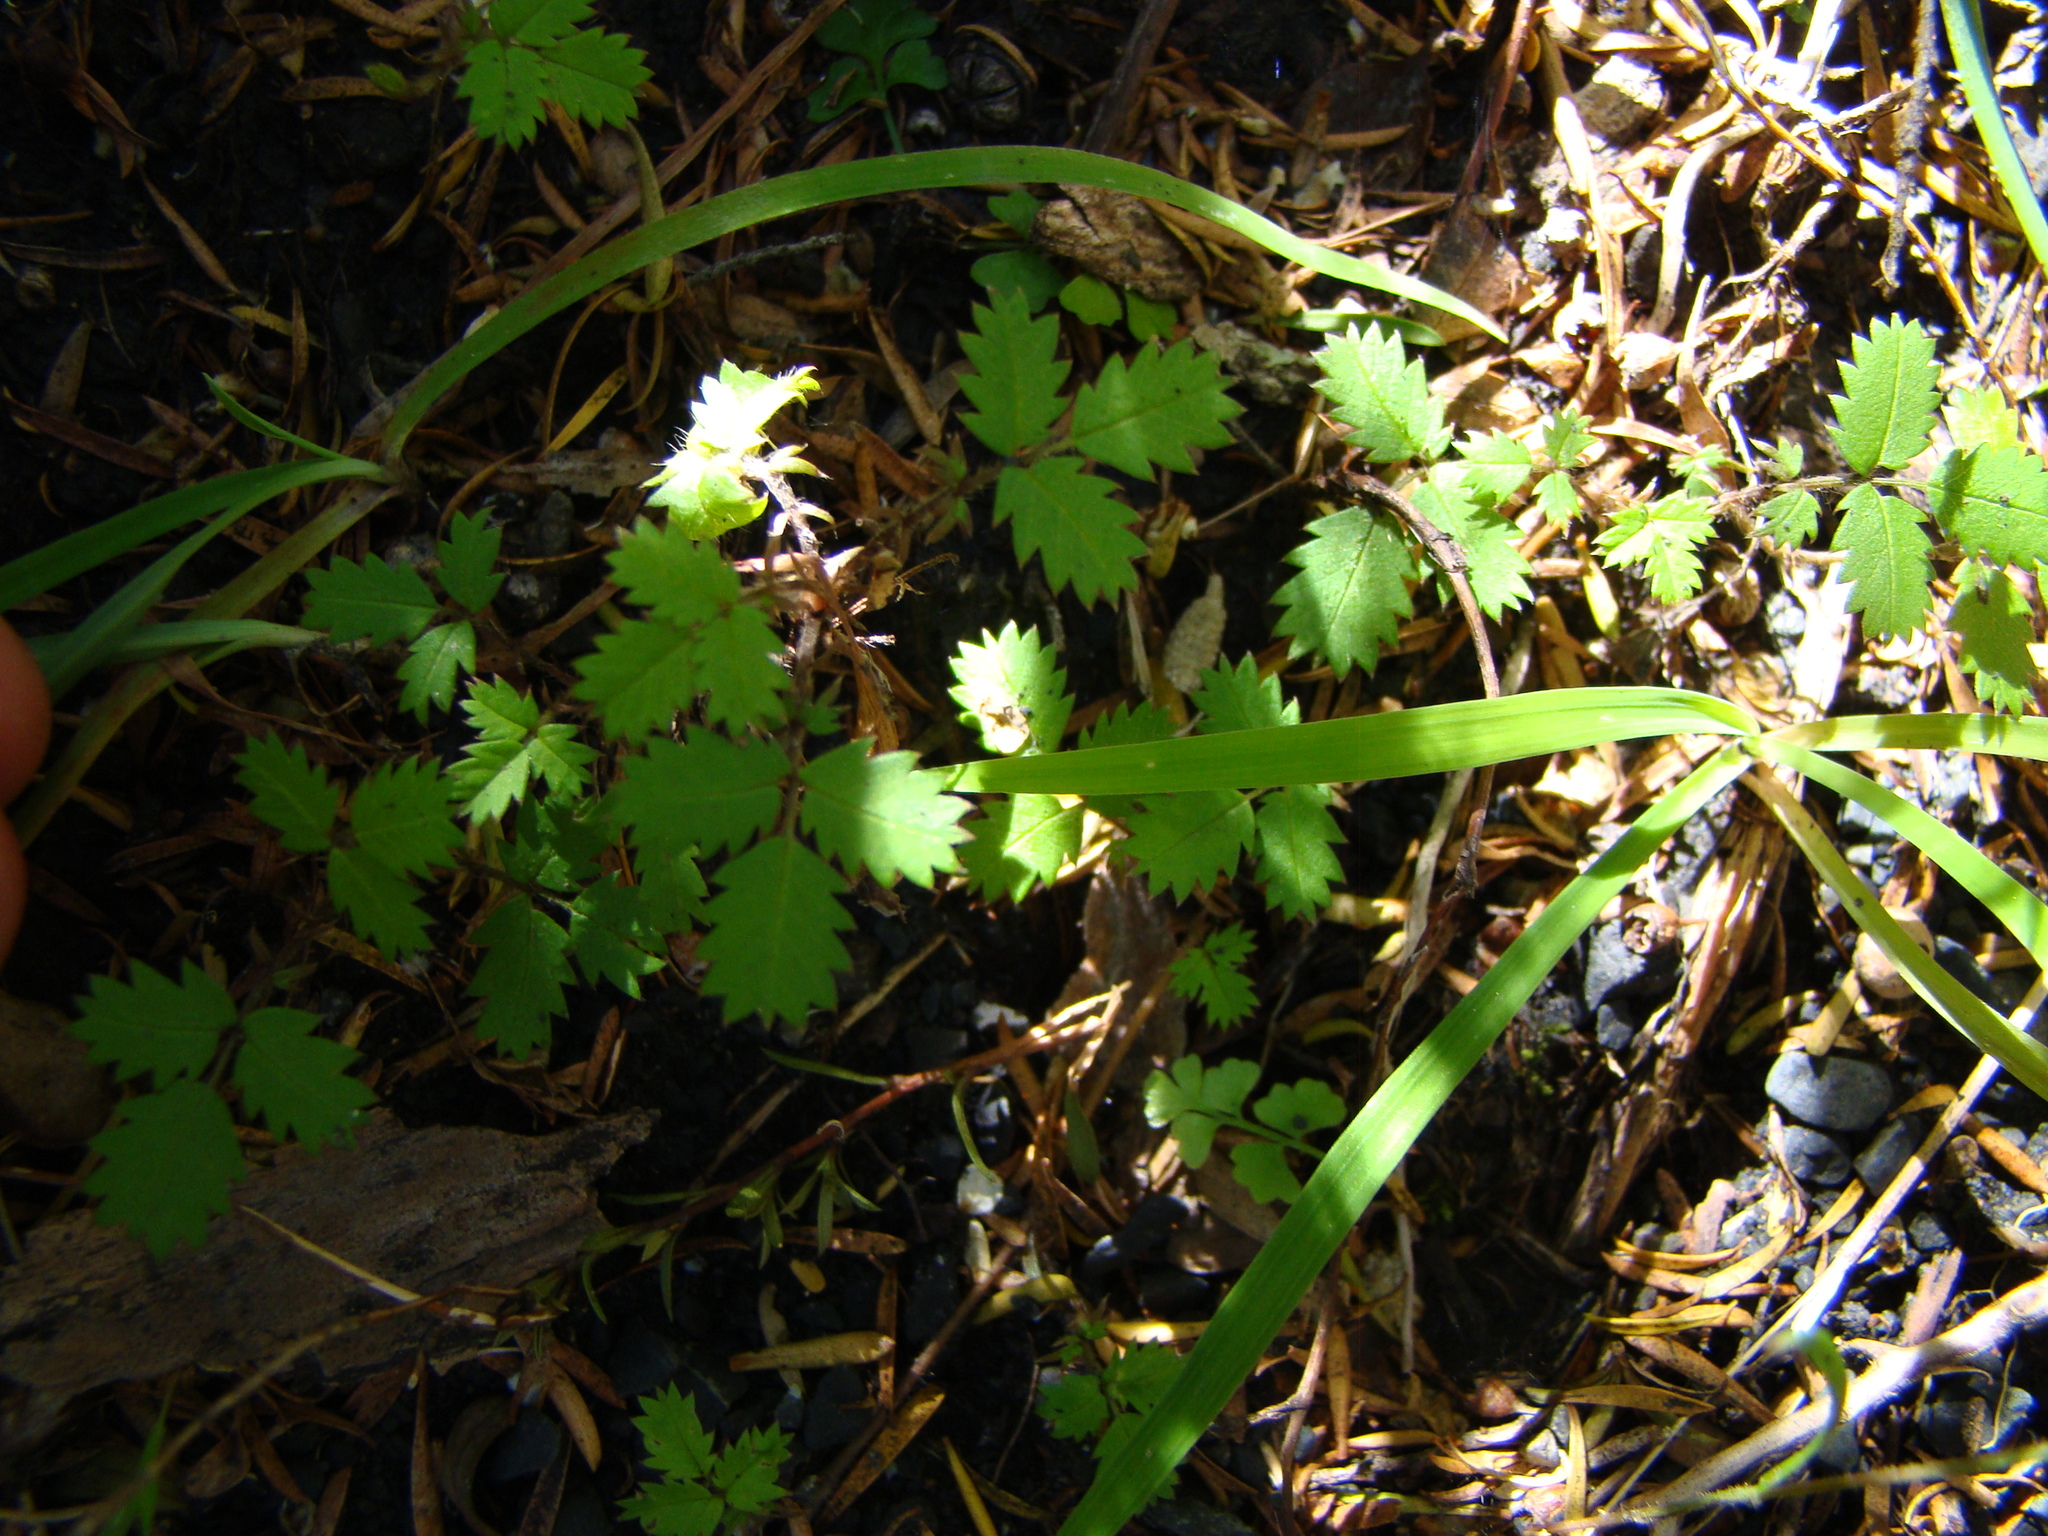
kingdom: Plantae
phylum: Tracheophyta
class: Magnoliopsida
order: Rosales
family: Rosaceae
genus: Acaena
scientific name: Acaena juvenca
